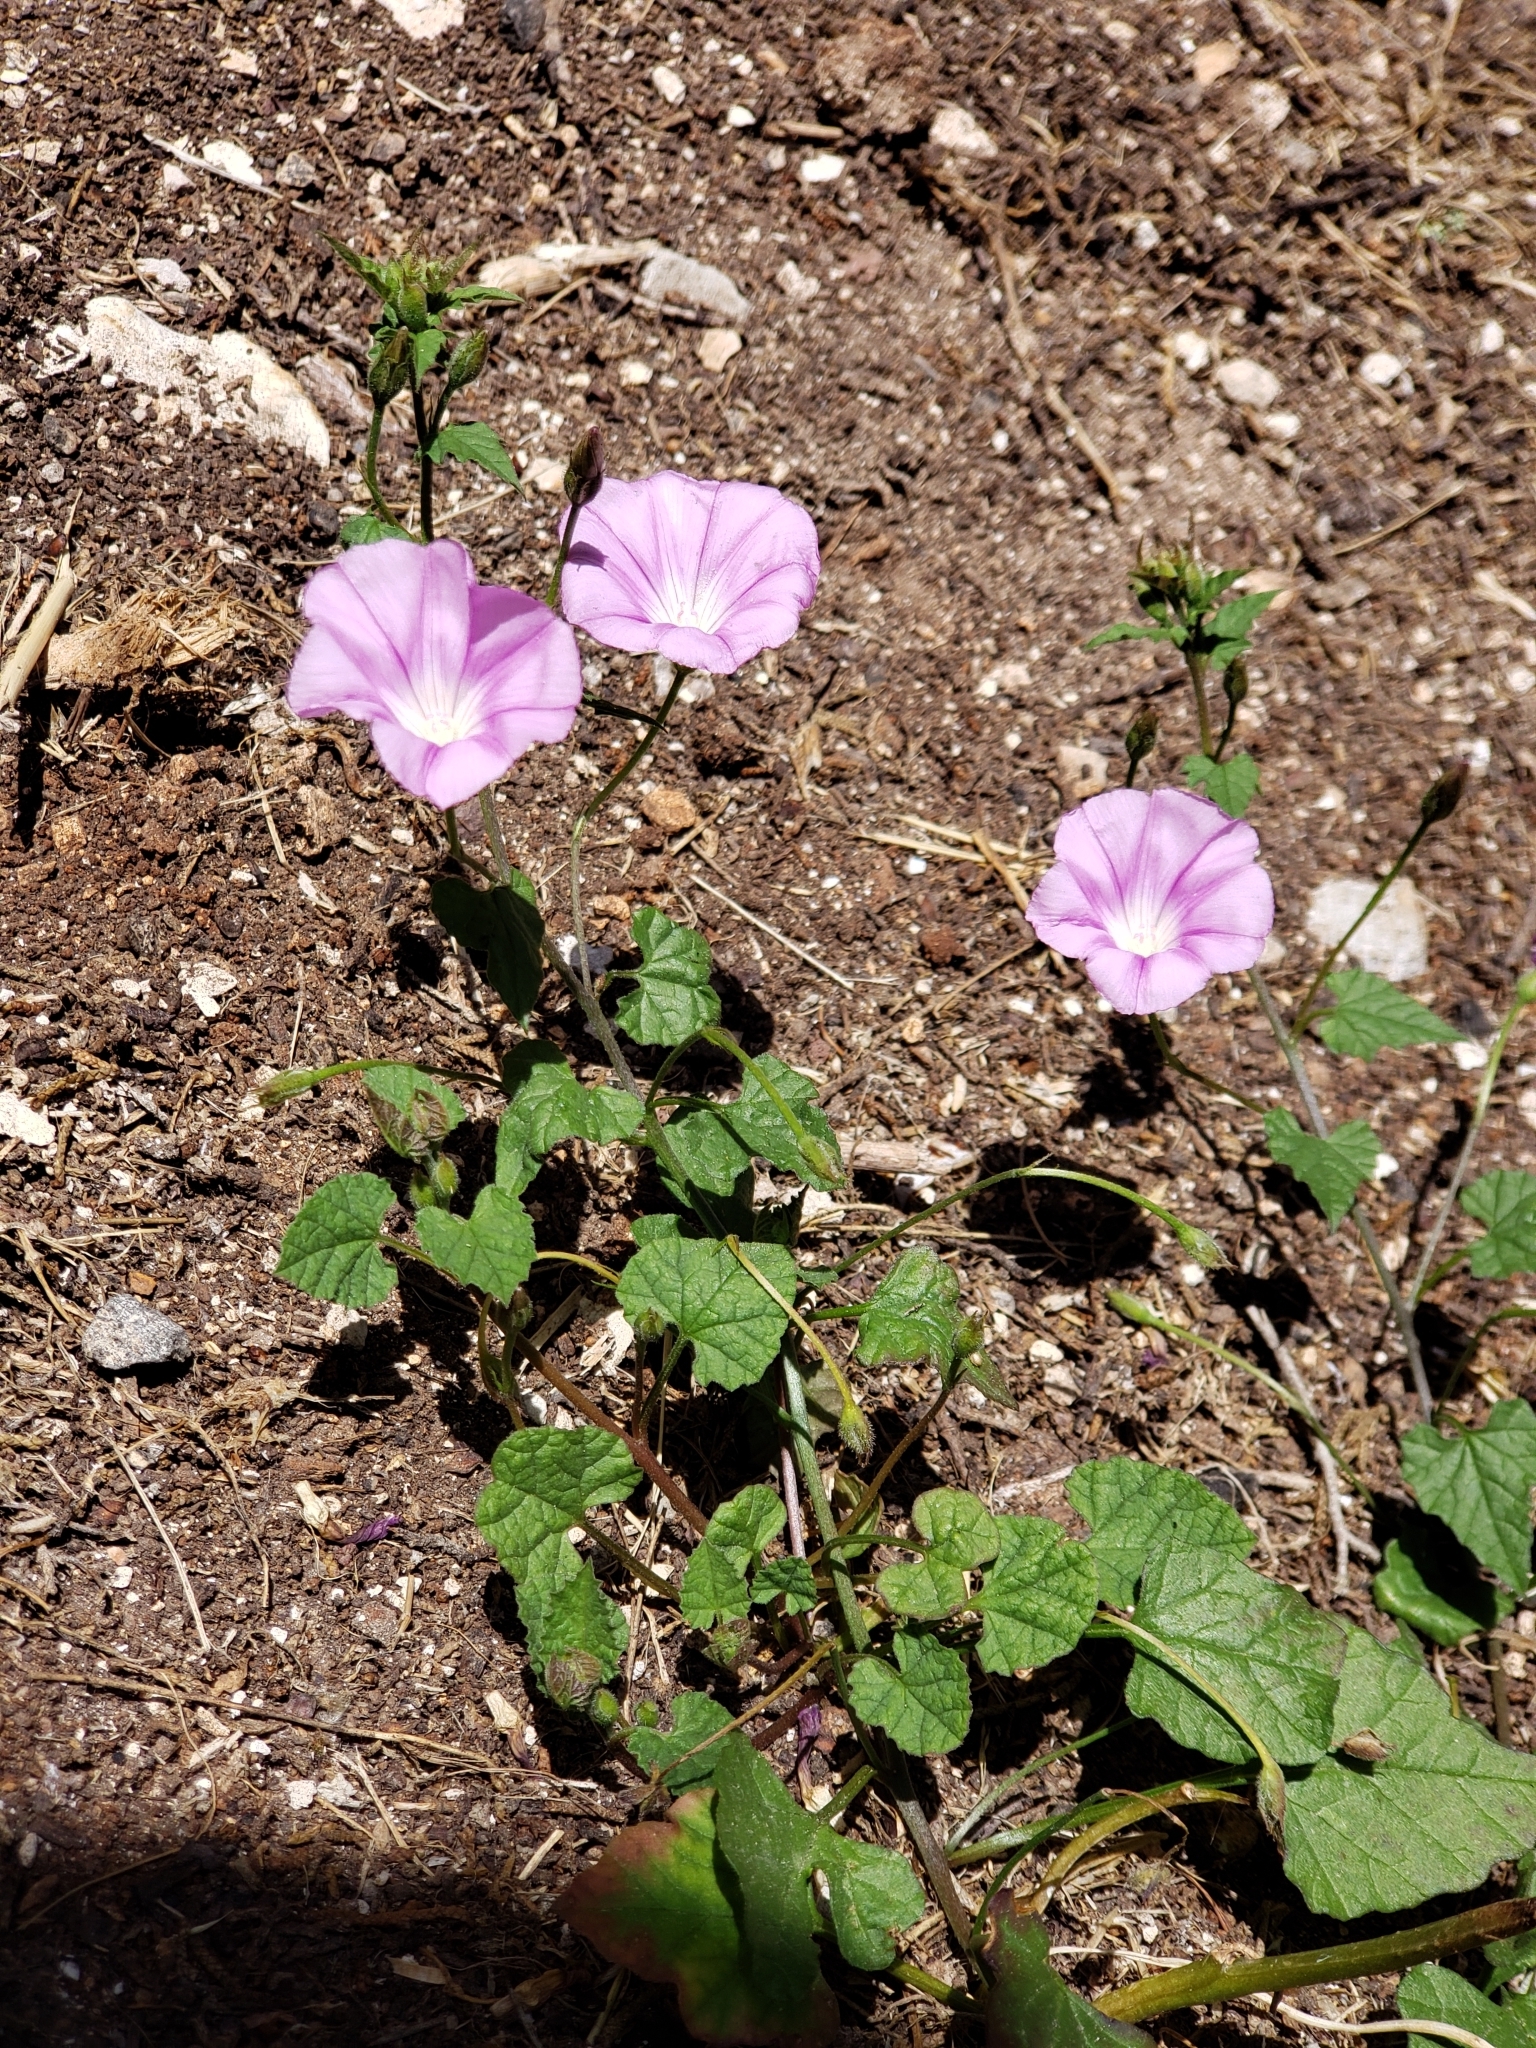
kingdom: Plantae
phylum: Tracheophyta
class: Magnoliopsida
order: Solanales
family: Convolvulaceae
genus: Convolvulus
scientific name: Convolvulus coelesyriacus
